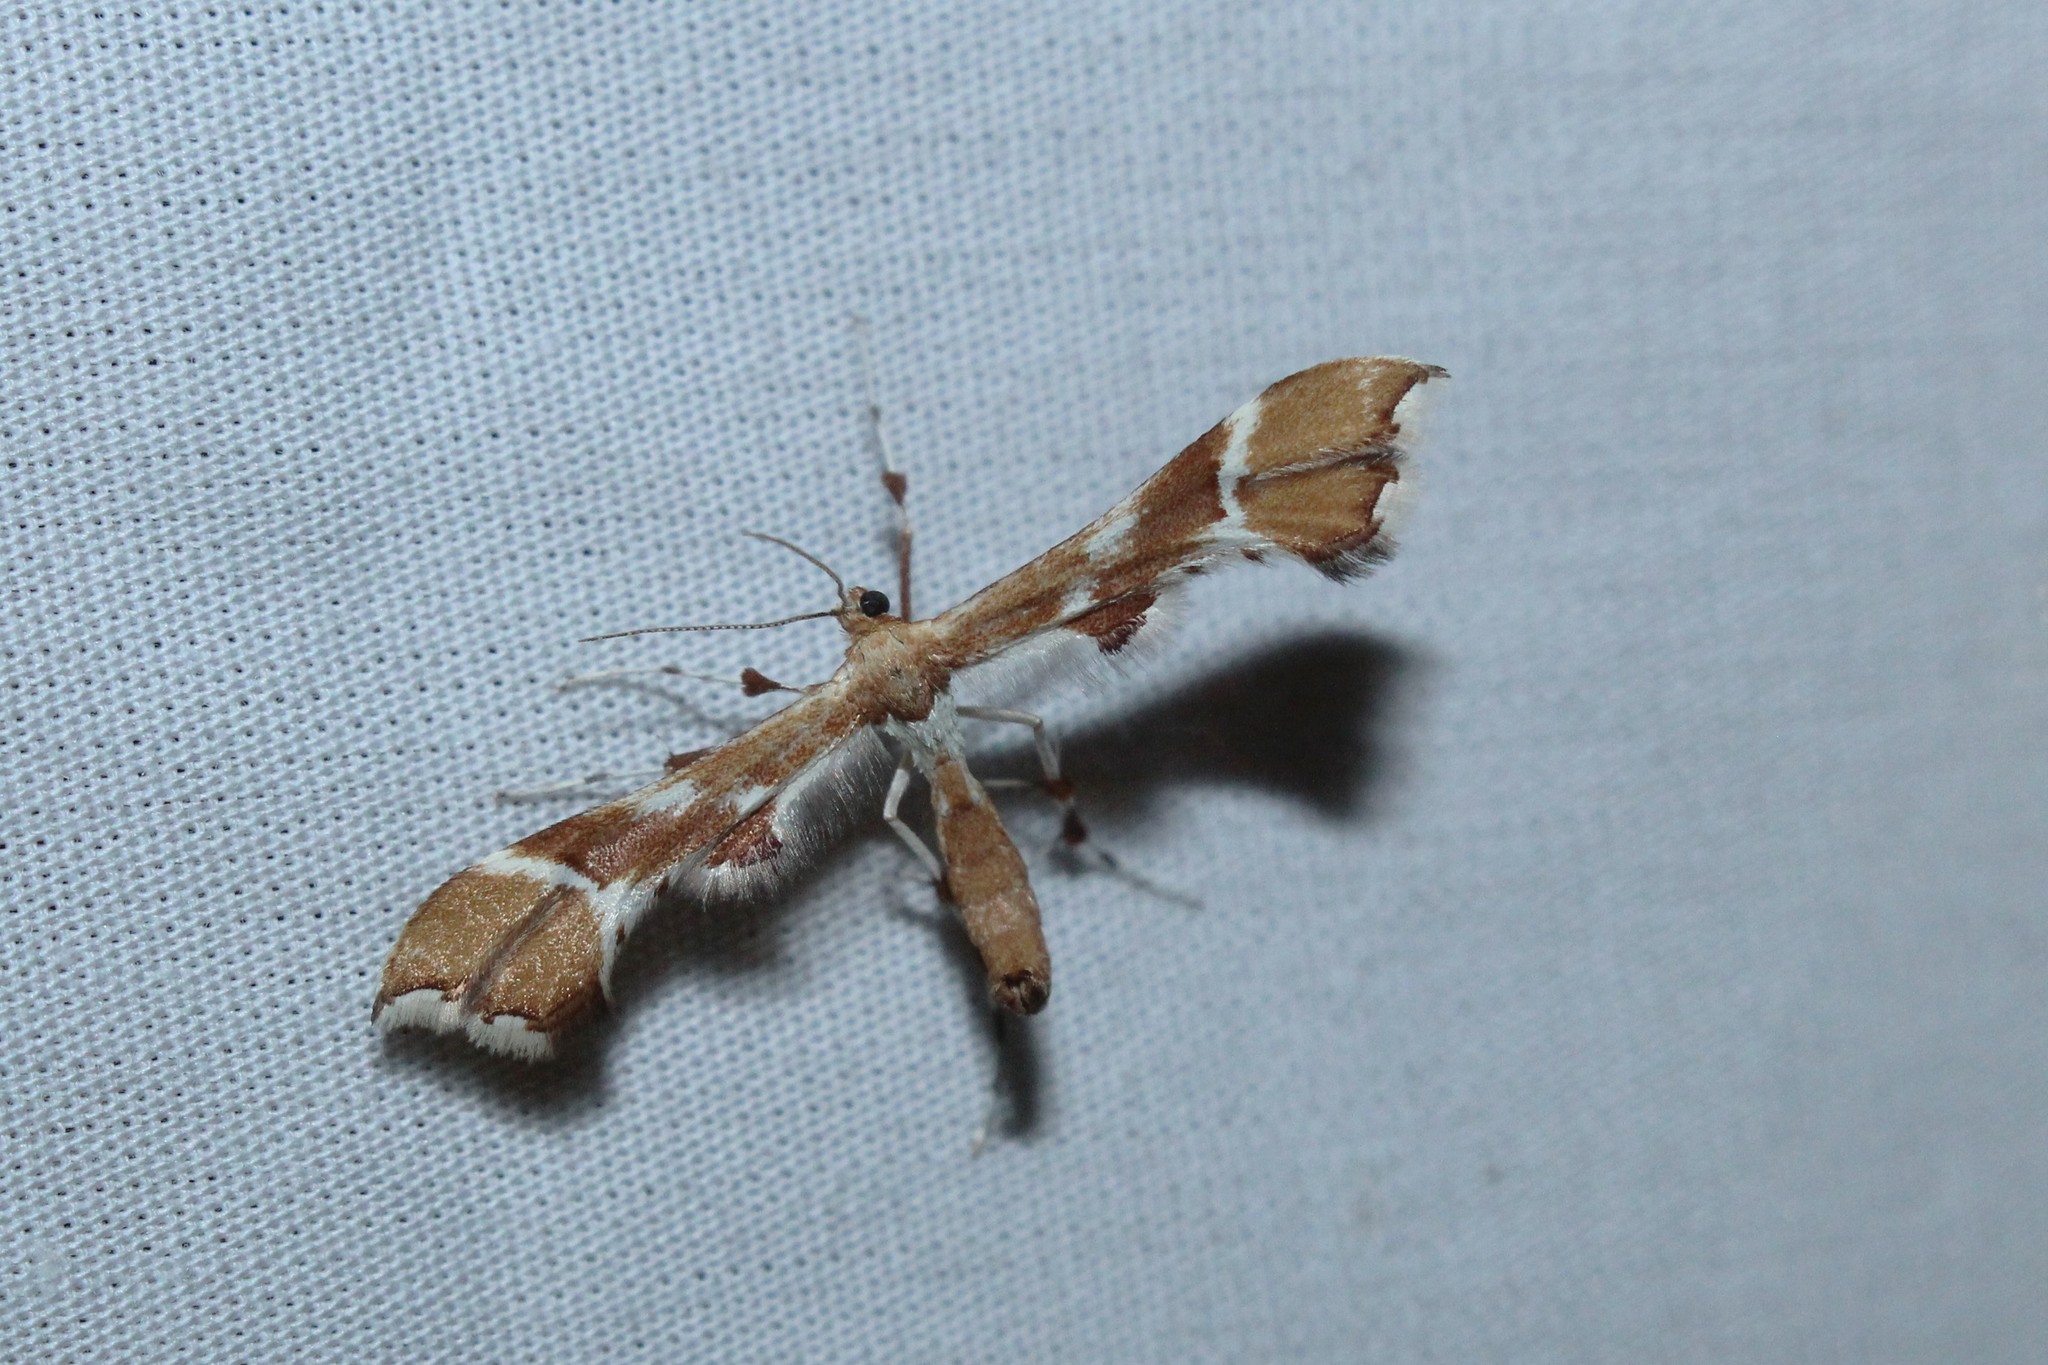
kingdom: Animalia
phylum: Arthropoda
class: Insecta
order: Lepidoptera
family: Pterophoridae
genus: Cnaemidophorus
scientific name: Cnaemidophorus rhododactyla
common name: Rose plume
